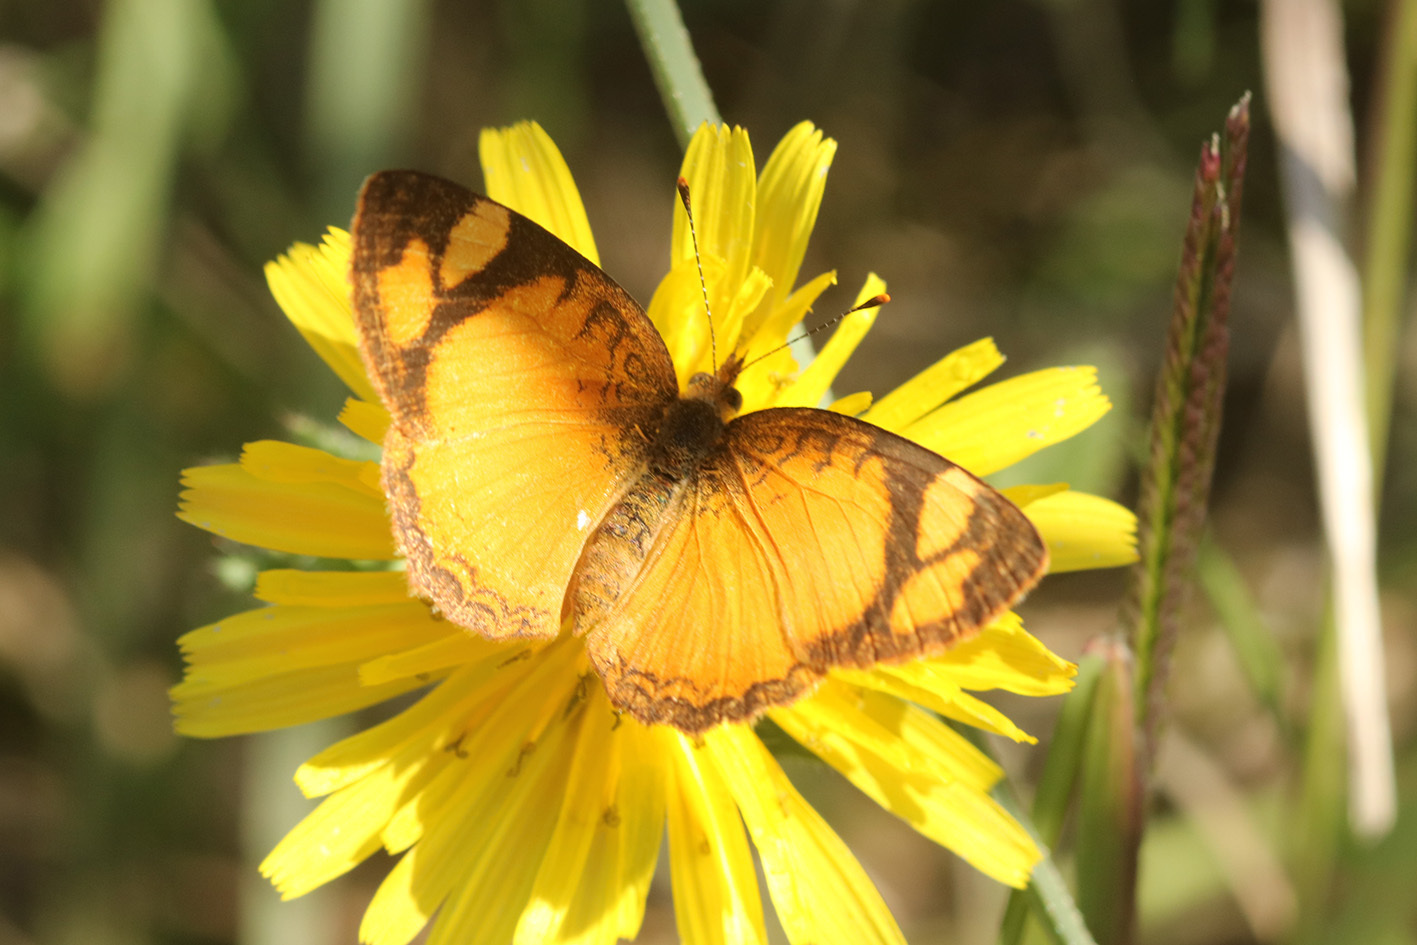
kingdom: Animalia
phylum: Arthropoda
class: Insecta
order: Lepidoptera
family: Nymphalidae
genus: Tegosa
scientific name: Tegosa claudina
